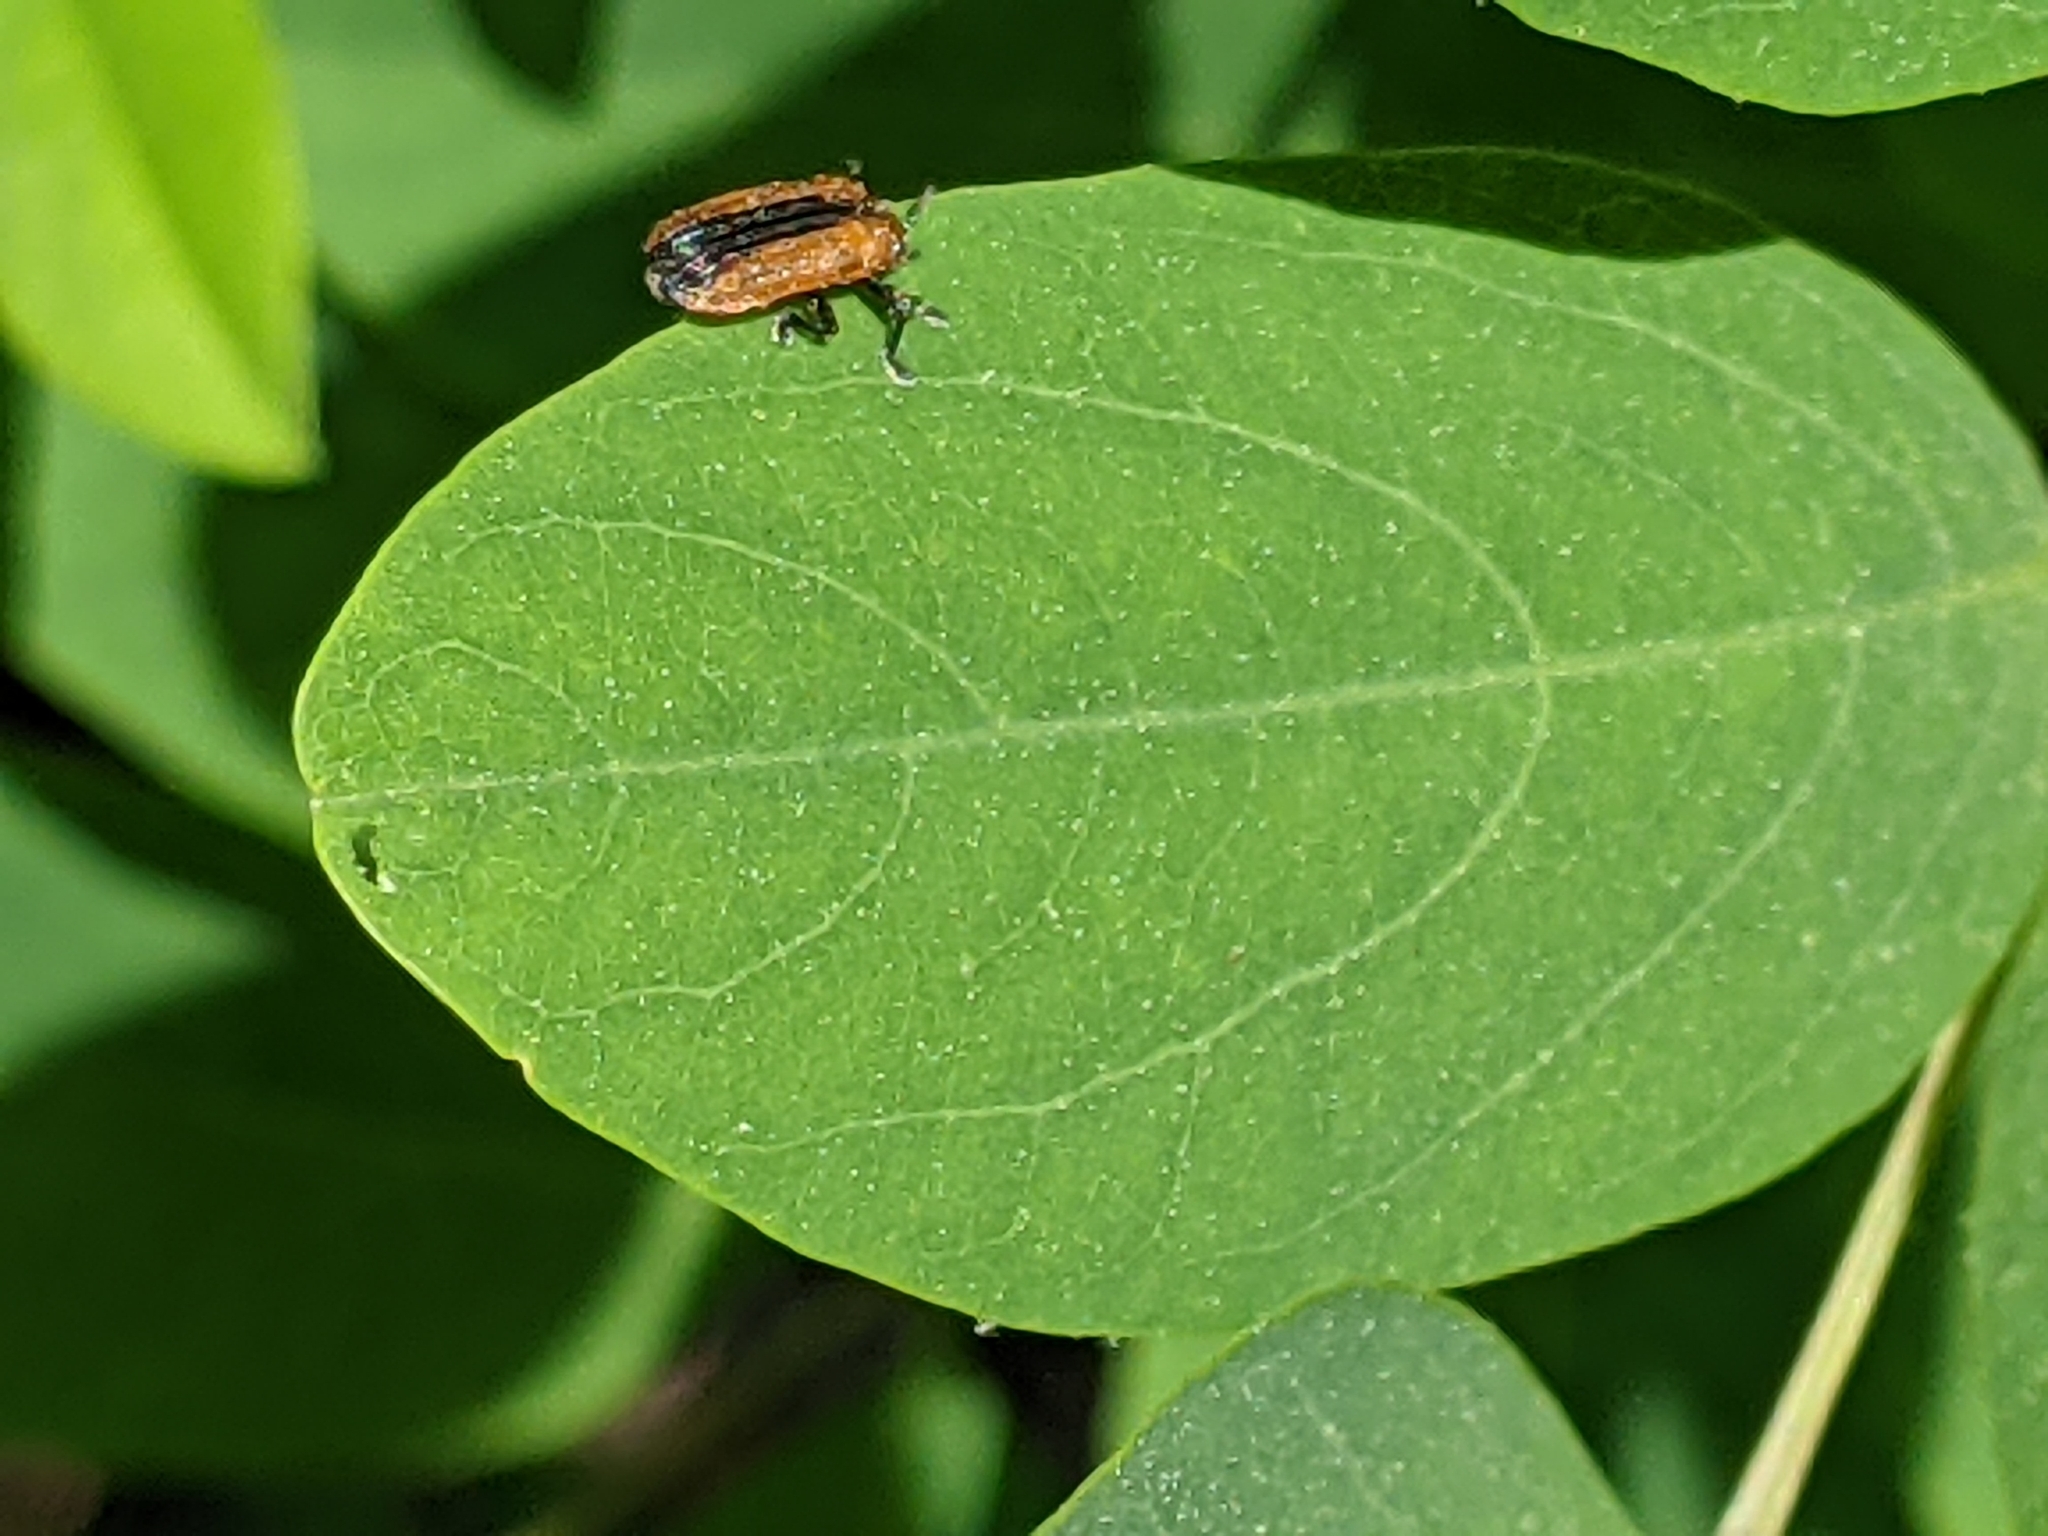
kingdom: Animalia
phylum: Arthropoda
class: Insecta
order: Coleoptera
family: Chrysomelidae
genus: Odontota
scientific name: Odontota dorsalis
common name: Locust leaf-miner beetle
